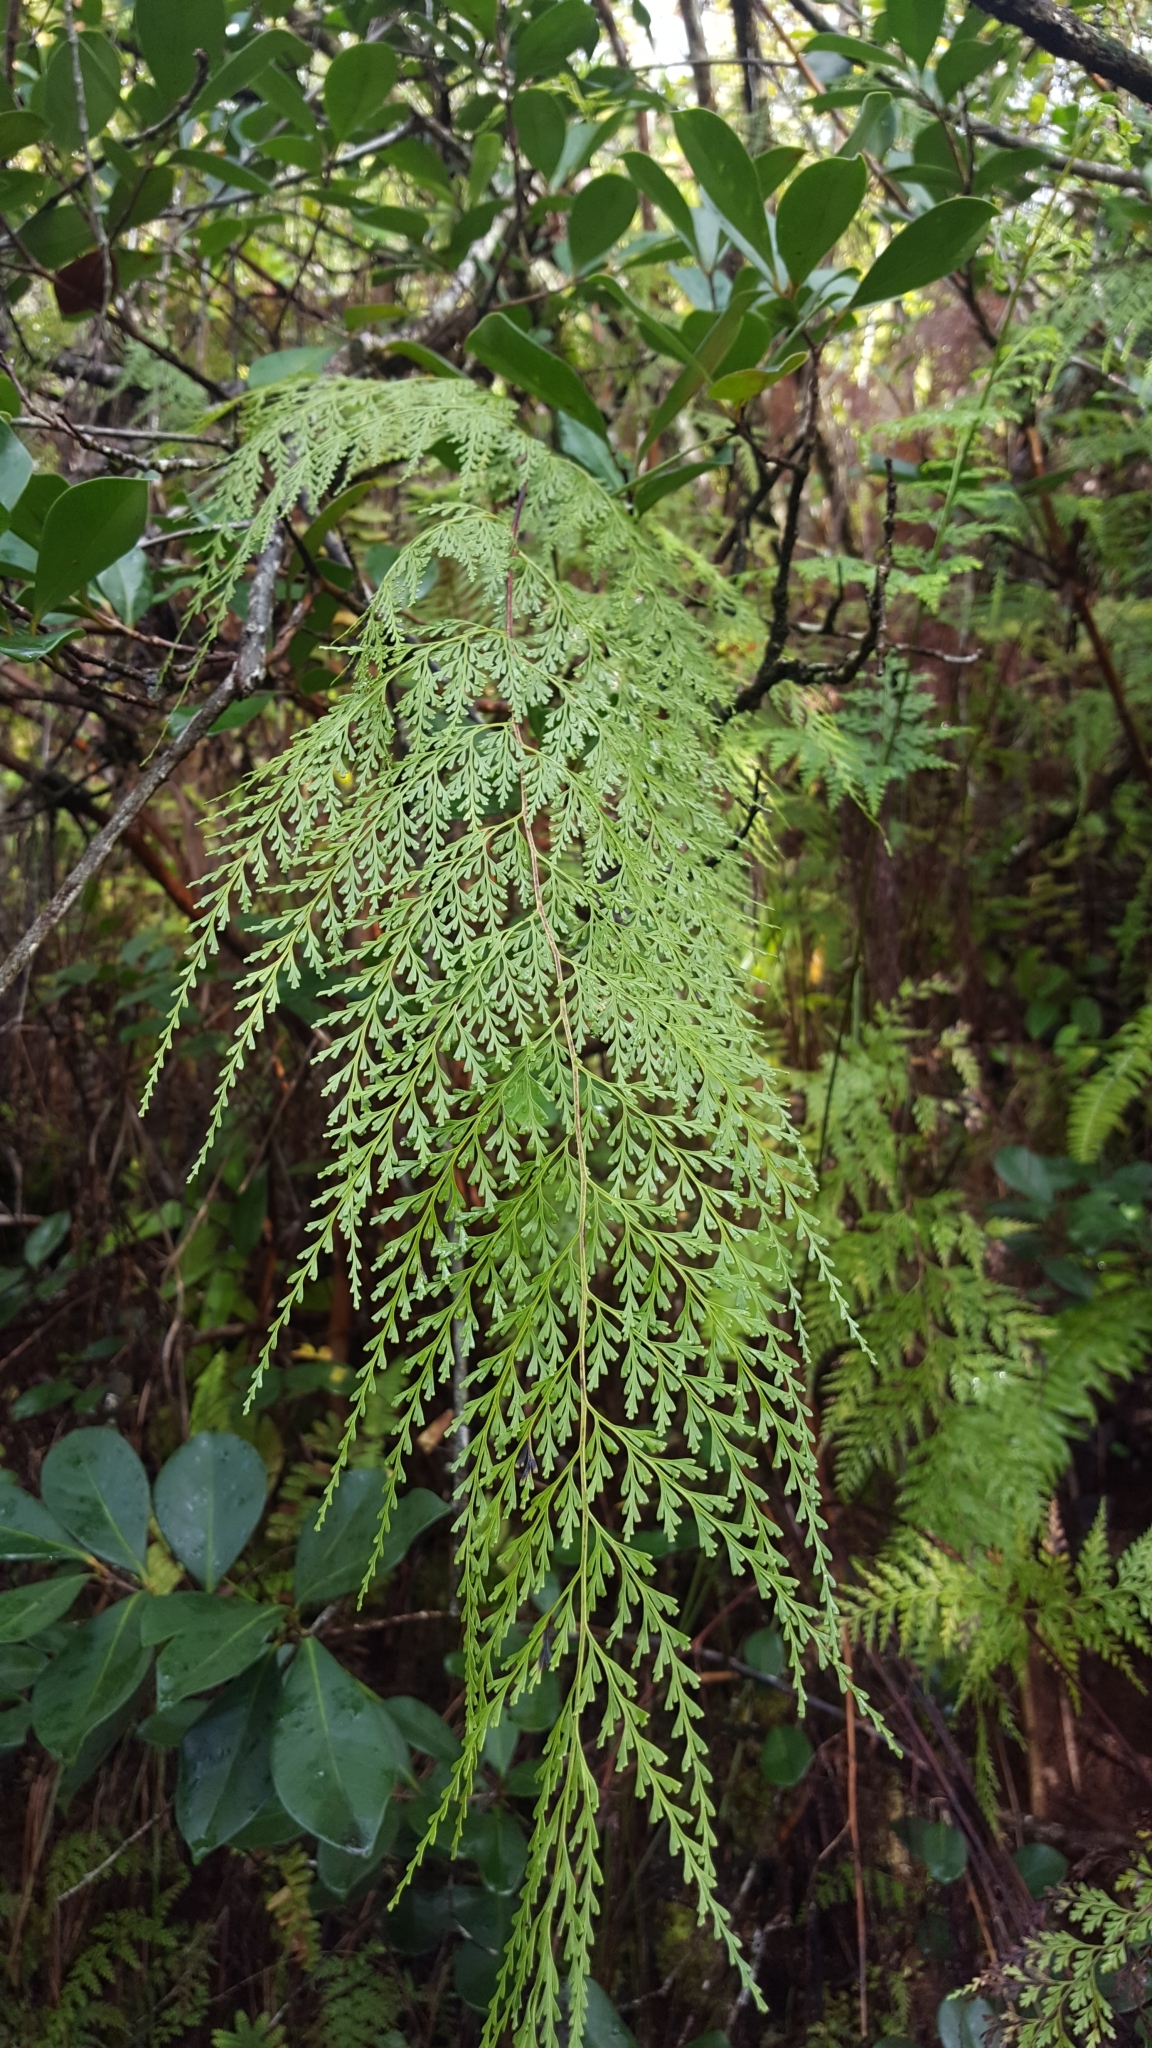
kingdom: Plantae
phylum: Tracheophyta
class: Polypodiopsida
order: Polypodiales
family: Lindsaeaceae
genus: Odontosoria
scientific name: Odontosoria chinensis
